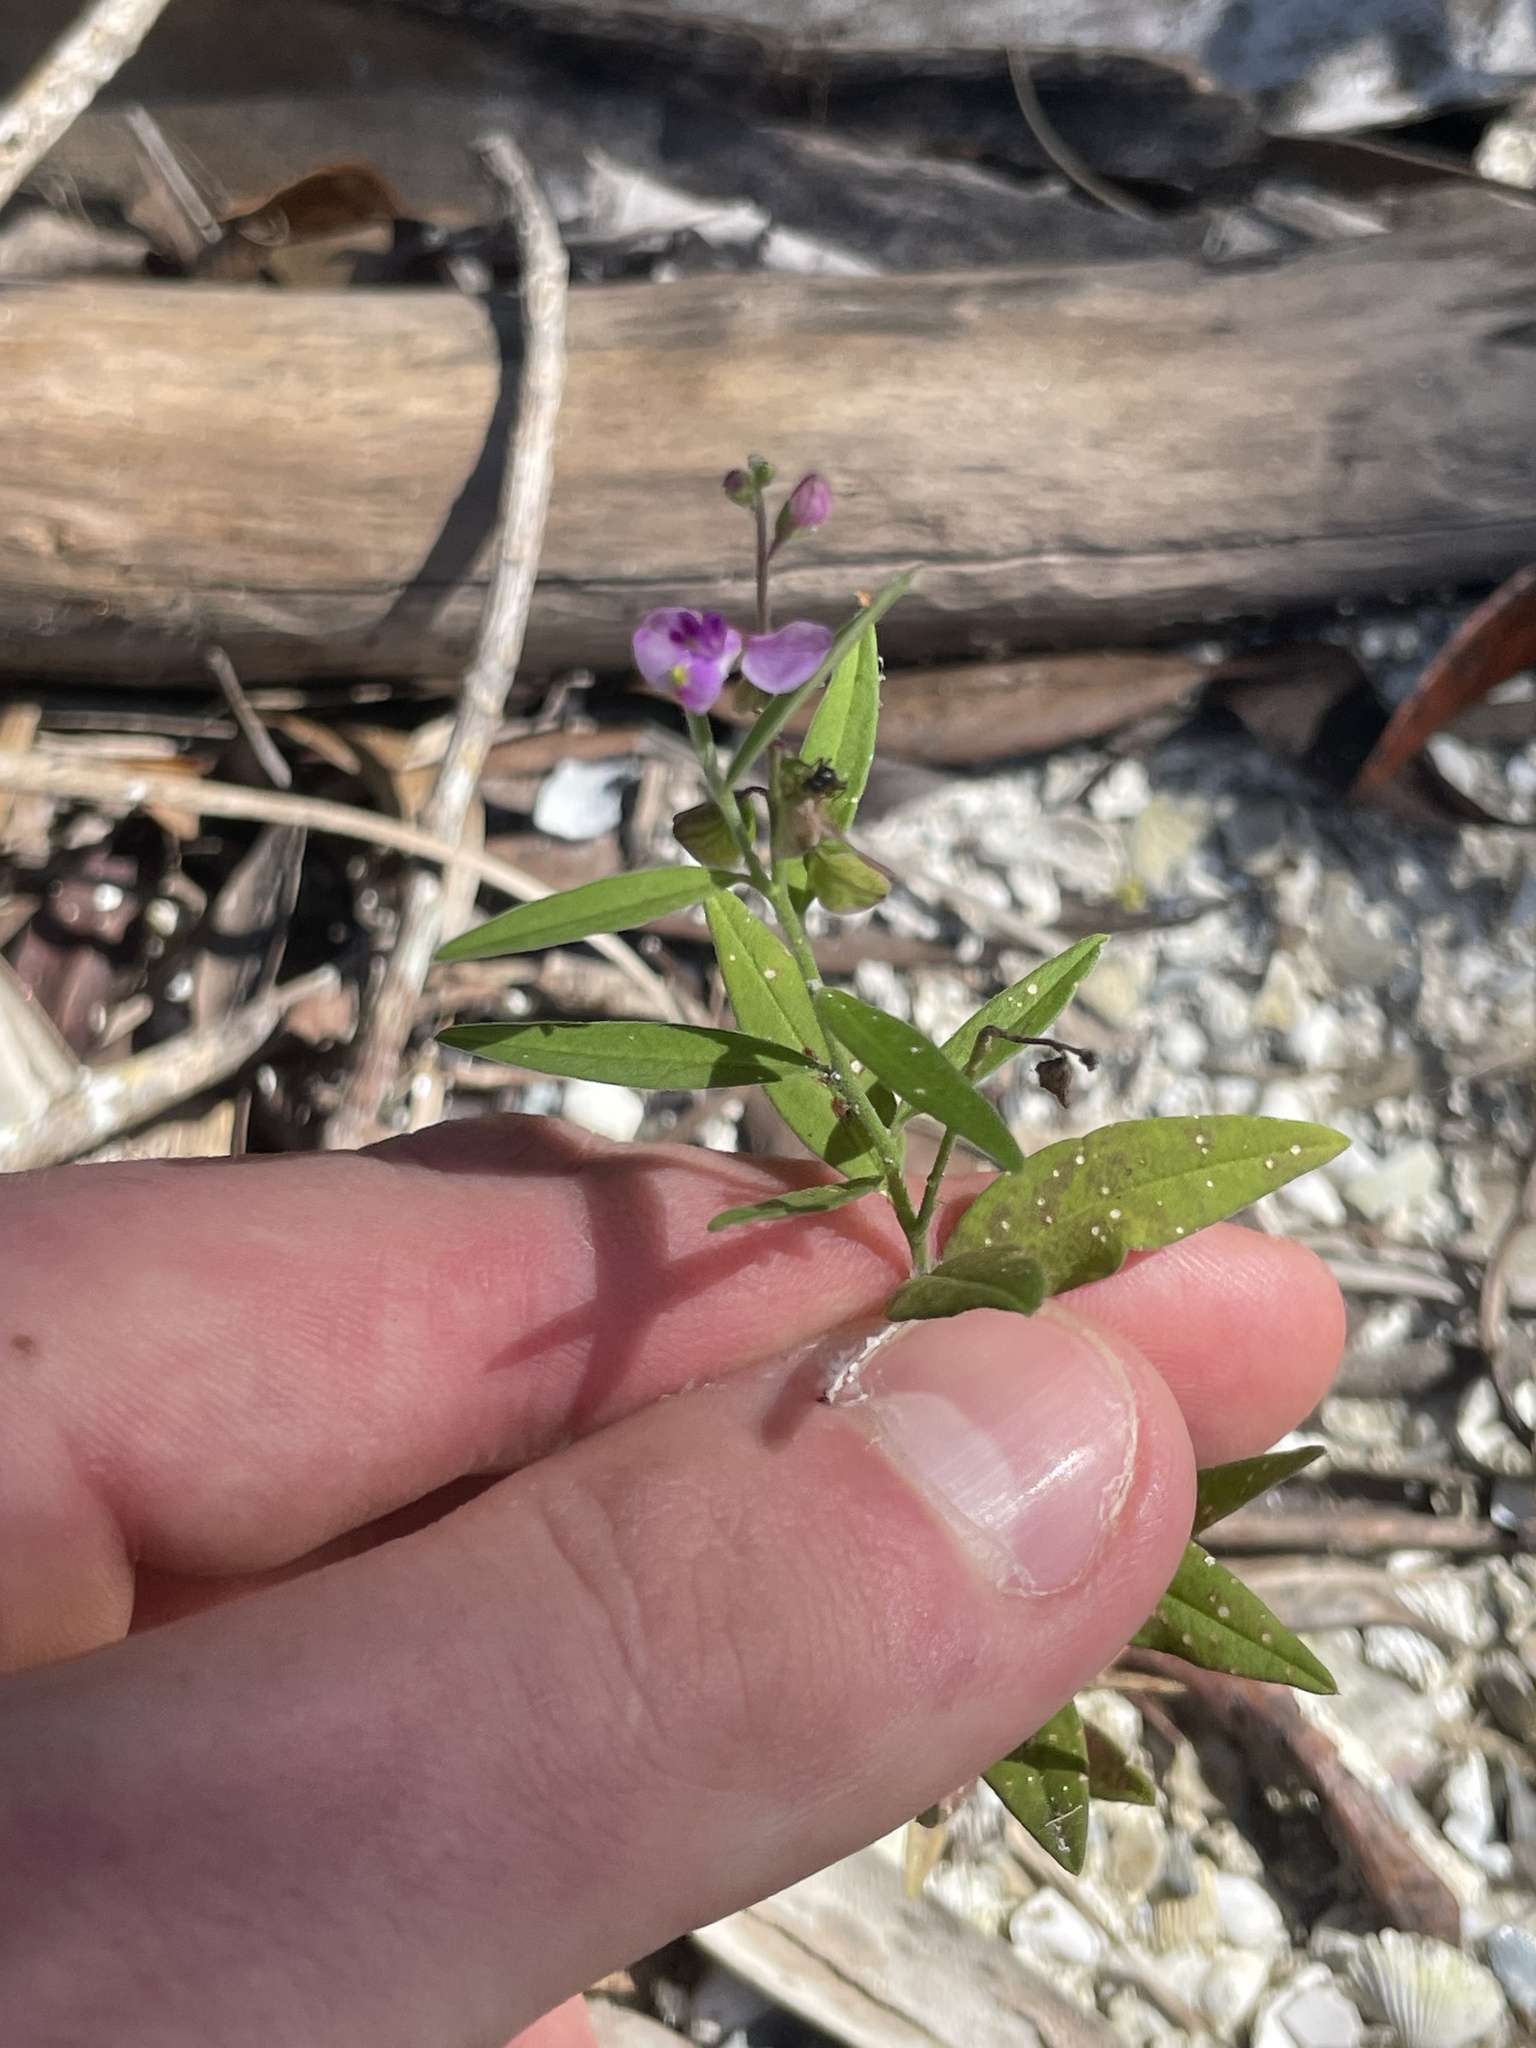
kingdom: Plantae
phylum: Tracheophyta
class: Magnoliopsida
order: Fabales
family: Polygalaceae
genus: Asemeia
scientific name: Asemeia grandiflora
